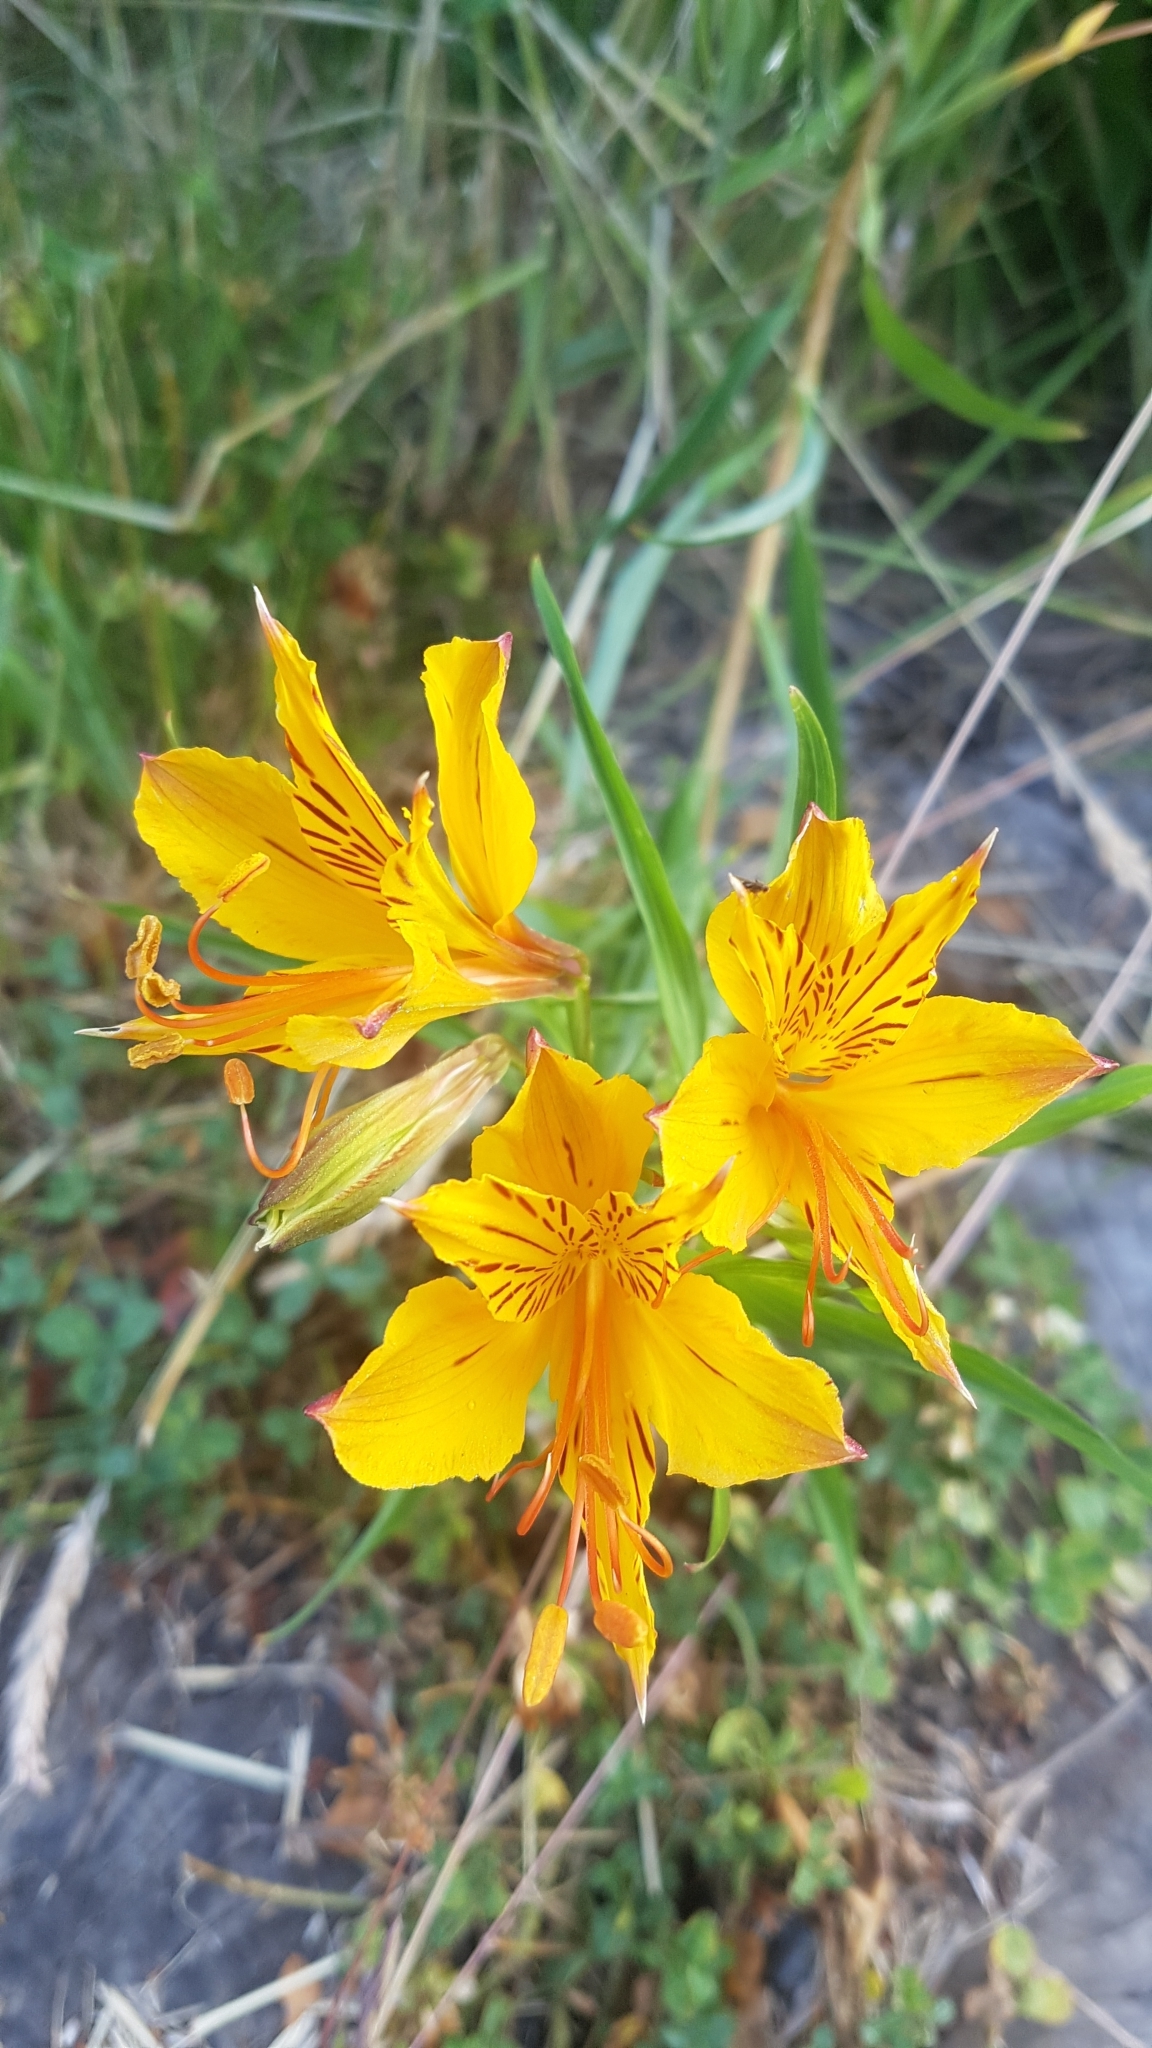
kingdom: Plantae
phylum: Tracheophyta
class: Liliopsida
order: Liliales
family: Alstroemeriaceae
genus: Alstroemeria
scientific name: Alstroemeria aurea
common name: Peruvian lily
